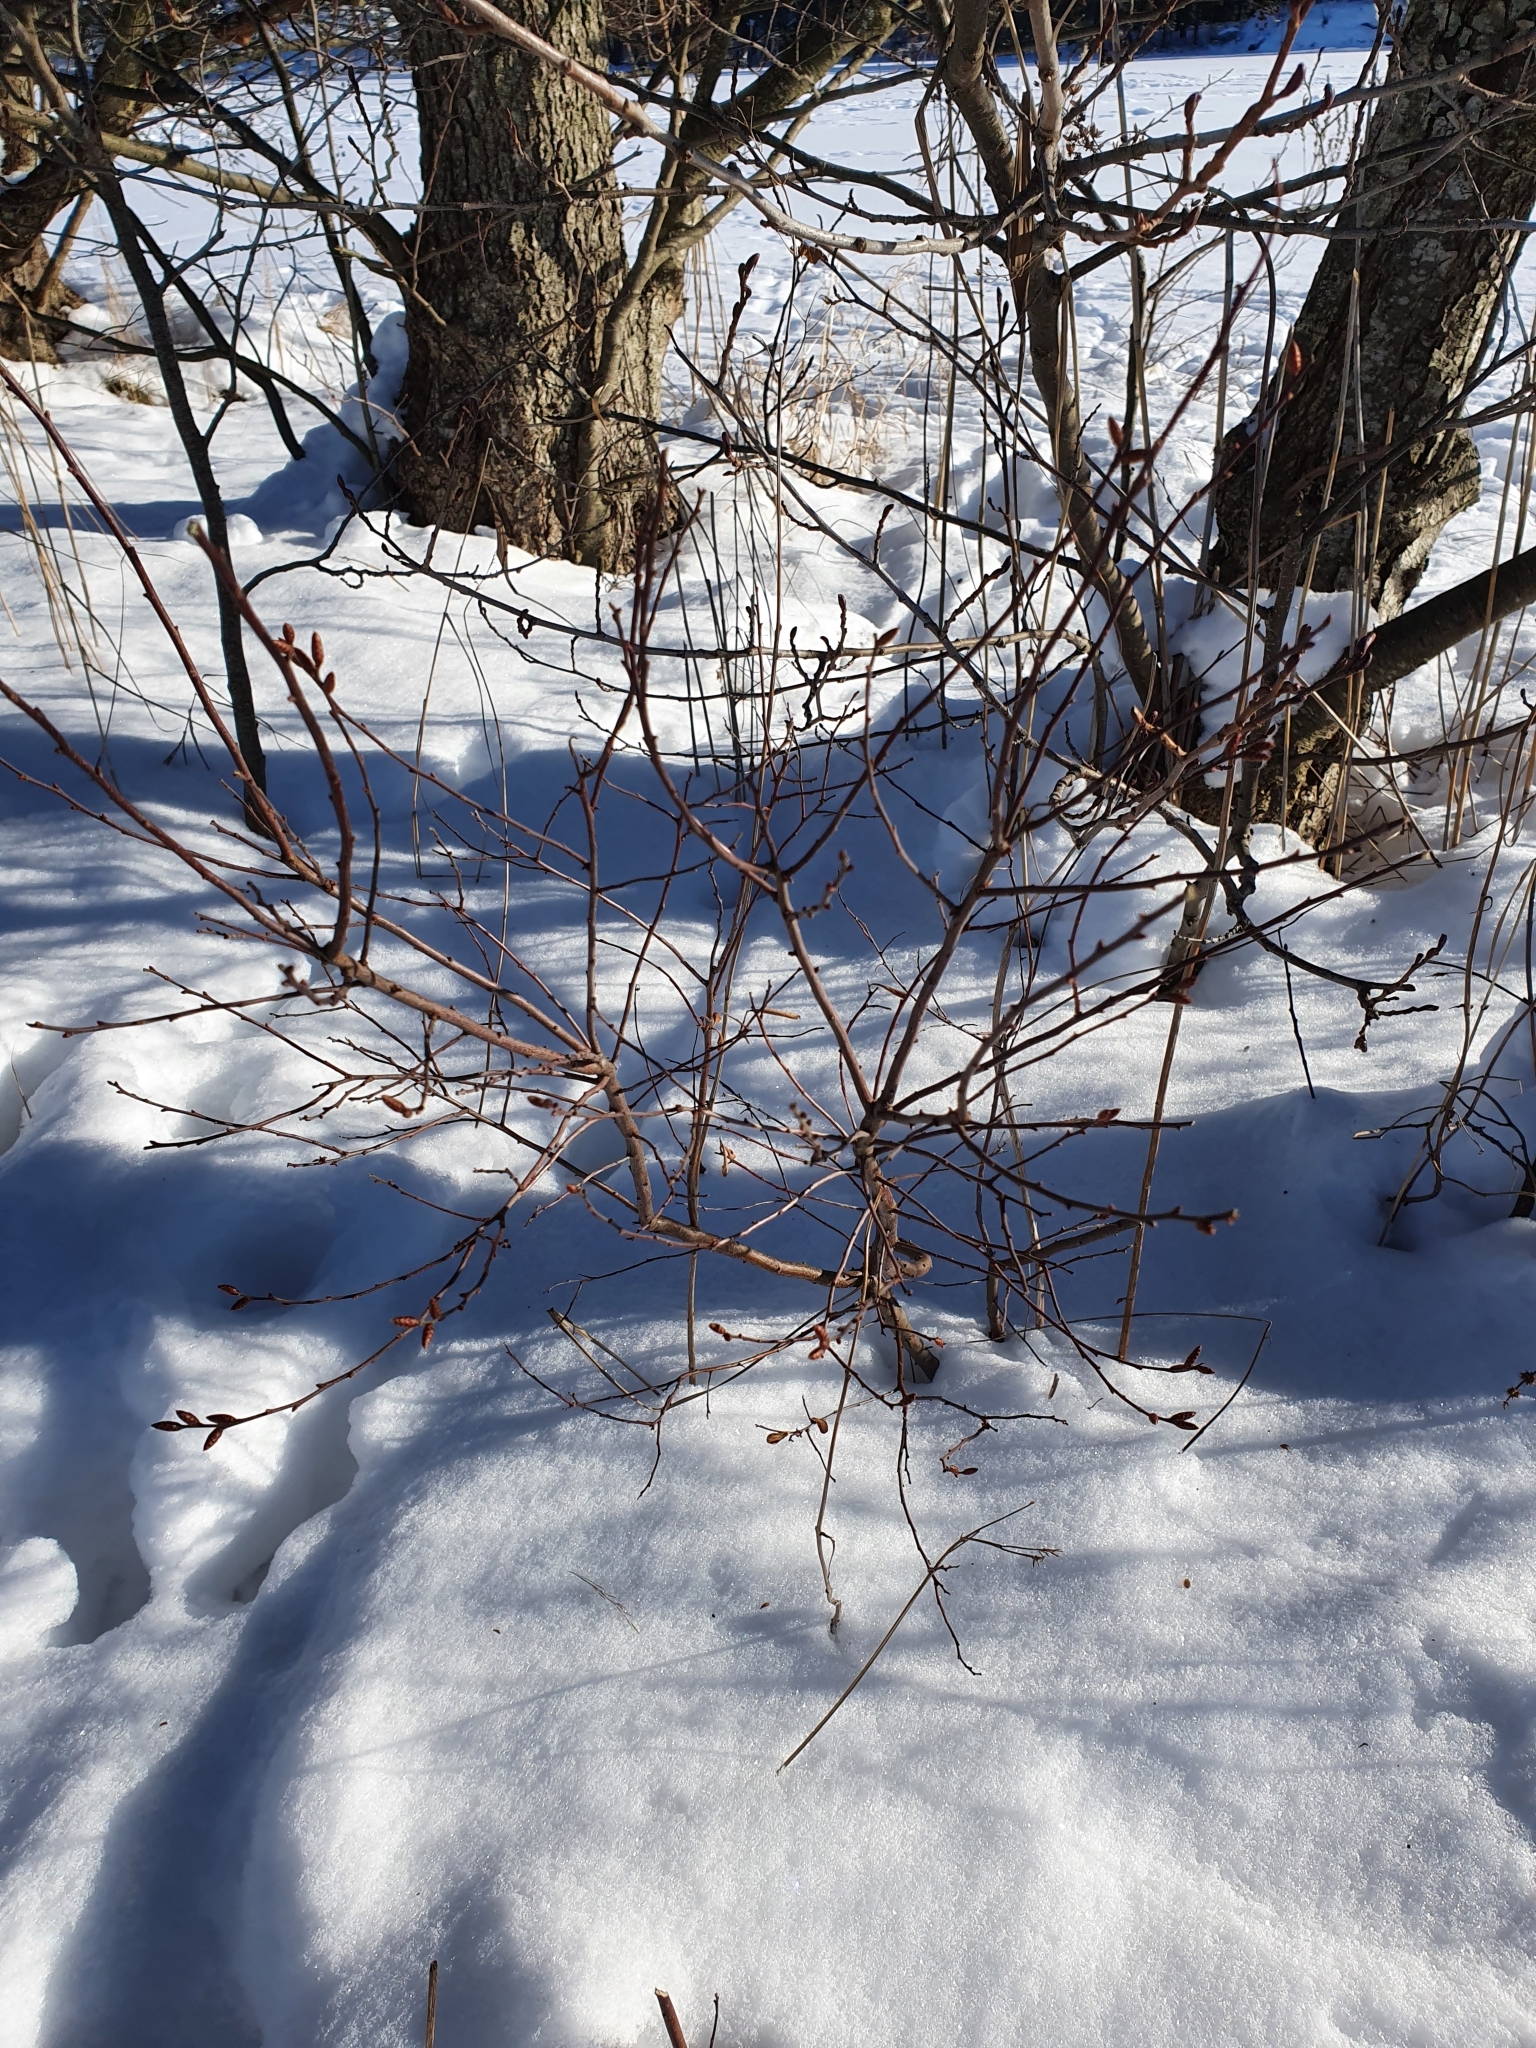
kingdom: Plantae
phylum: Tracheophyta
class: Magnoliopsida
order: Fagales
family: Myricaceae
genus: Myrica
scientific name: Myrica gale
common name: Sweet gale
